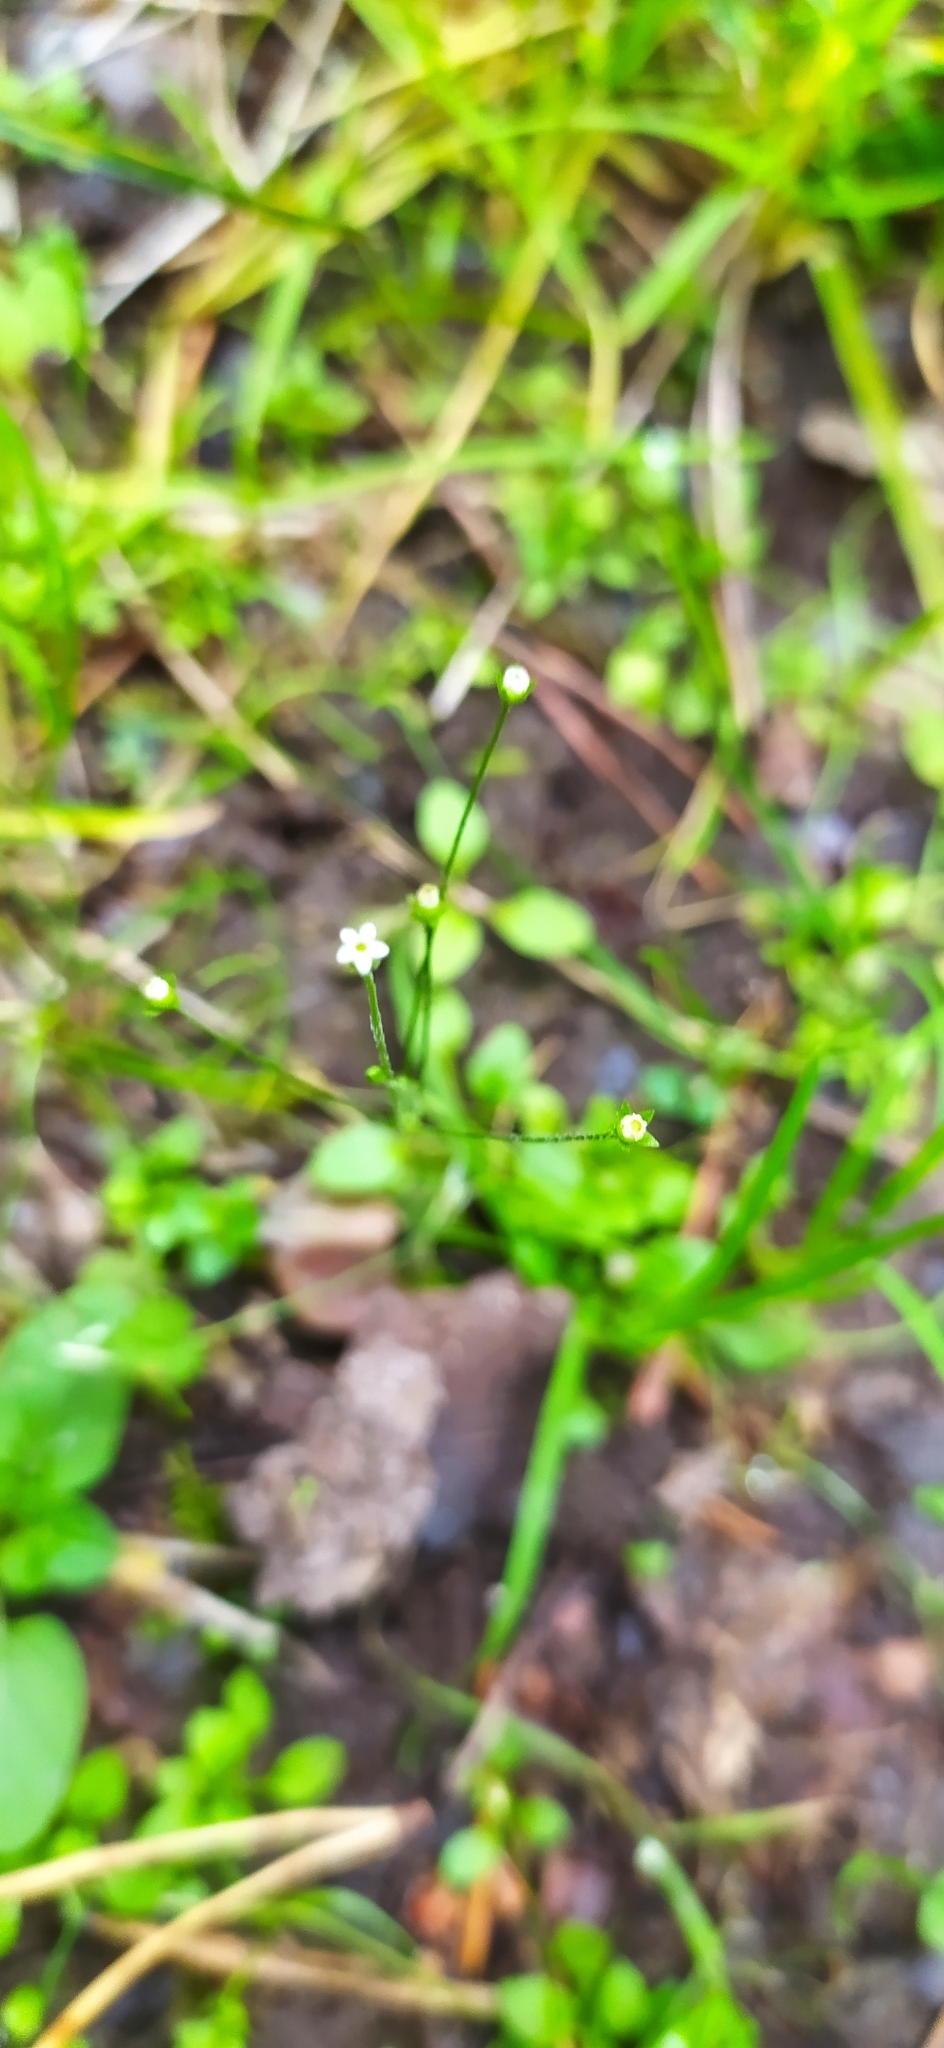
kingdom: Plantae
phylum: Tracheophyta
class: Magnoliopsida
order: Ericales
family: Primulaceae
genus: Androsace
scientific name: Androsace filiformis
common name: Filiform rock jasmine
